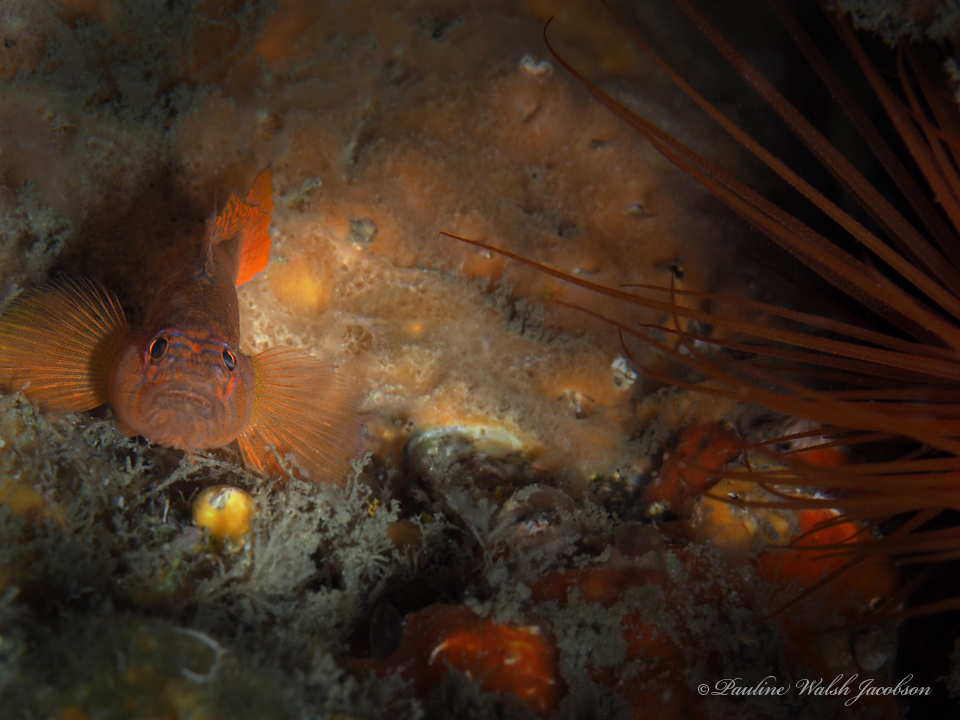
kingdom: Animalia
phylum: Chordata
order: Perciformes
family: Gobiidae
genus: Priolepis
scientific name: Priolepis hipoliti
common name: Rusty goby
